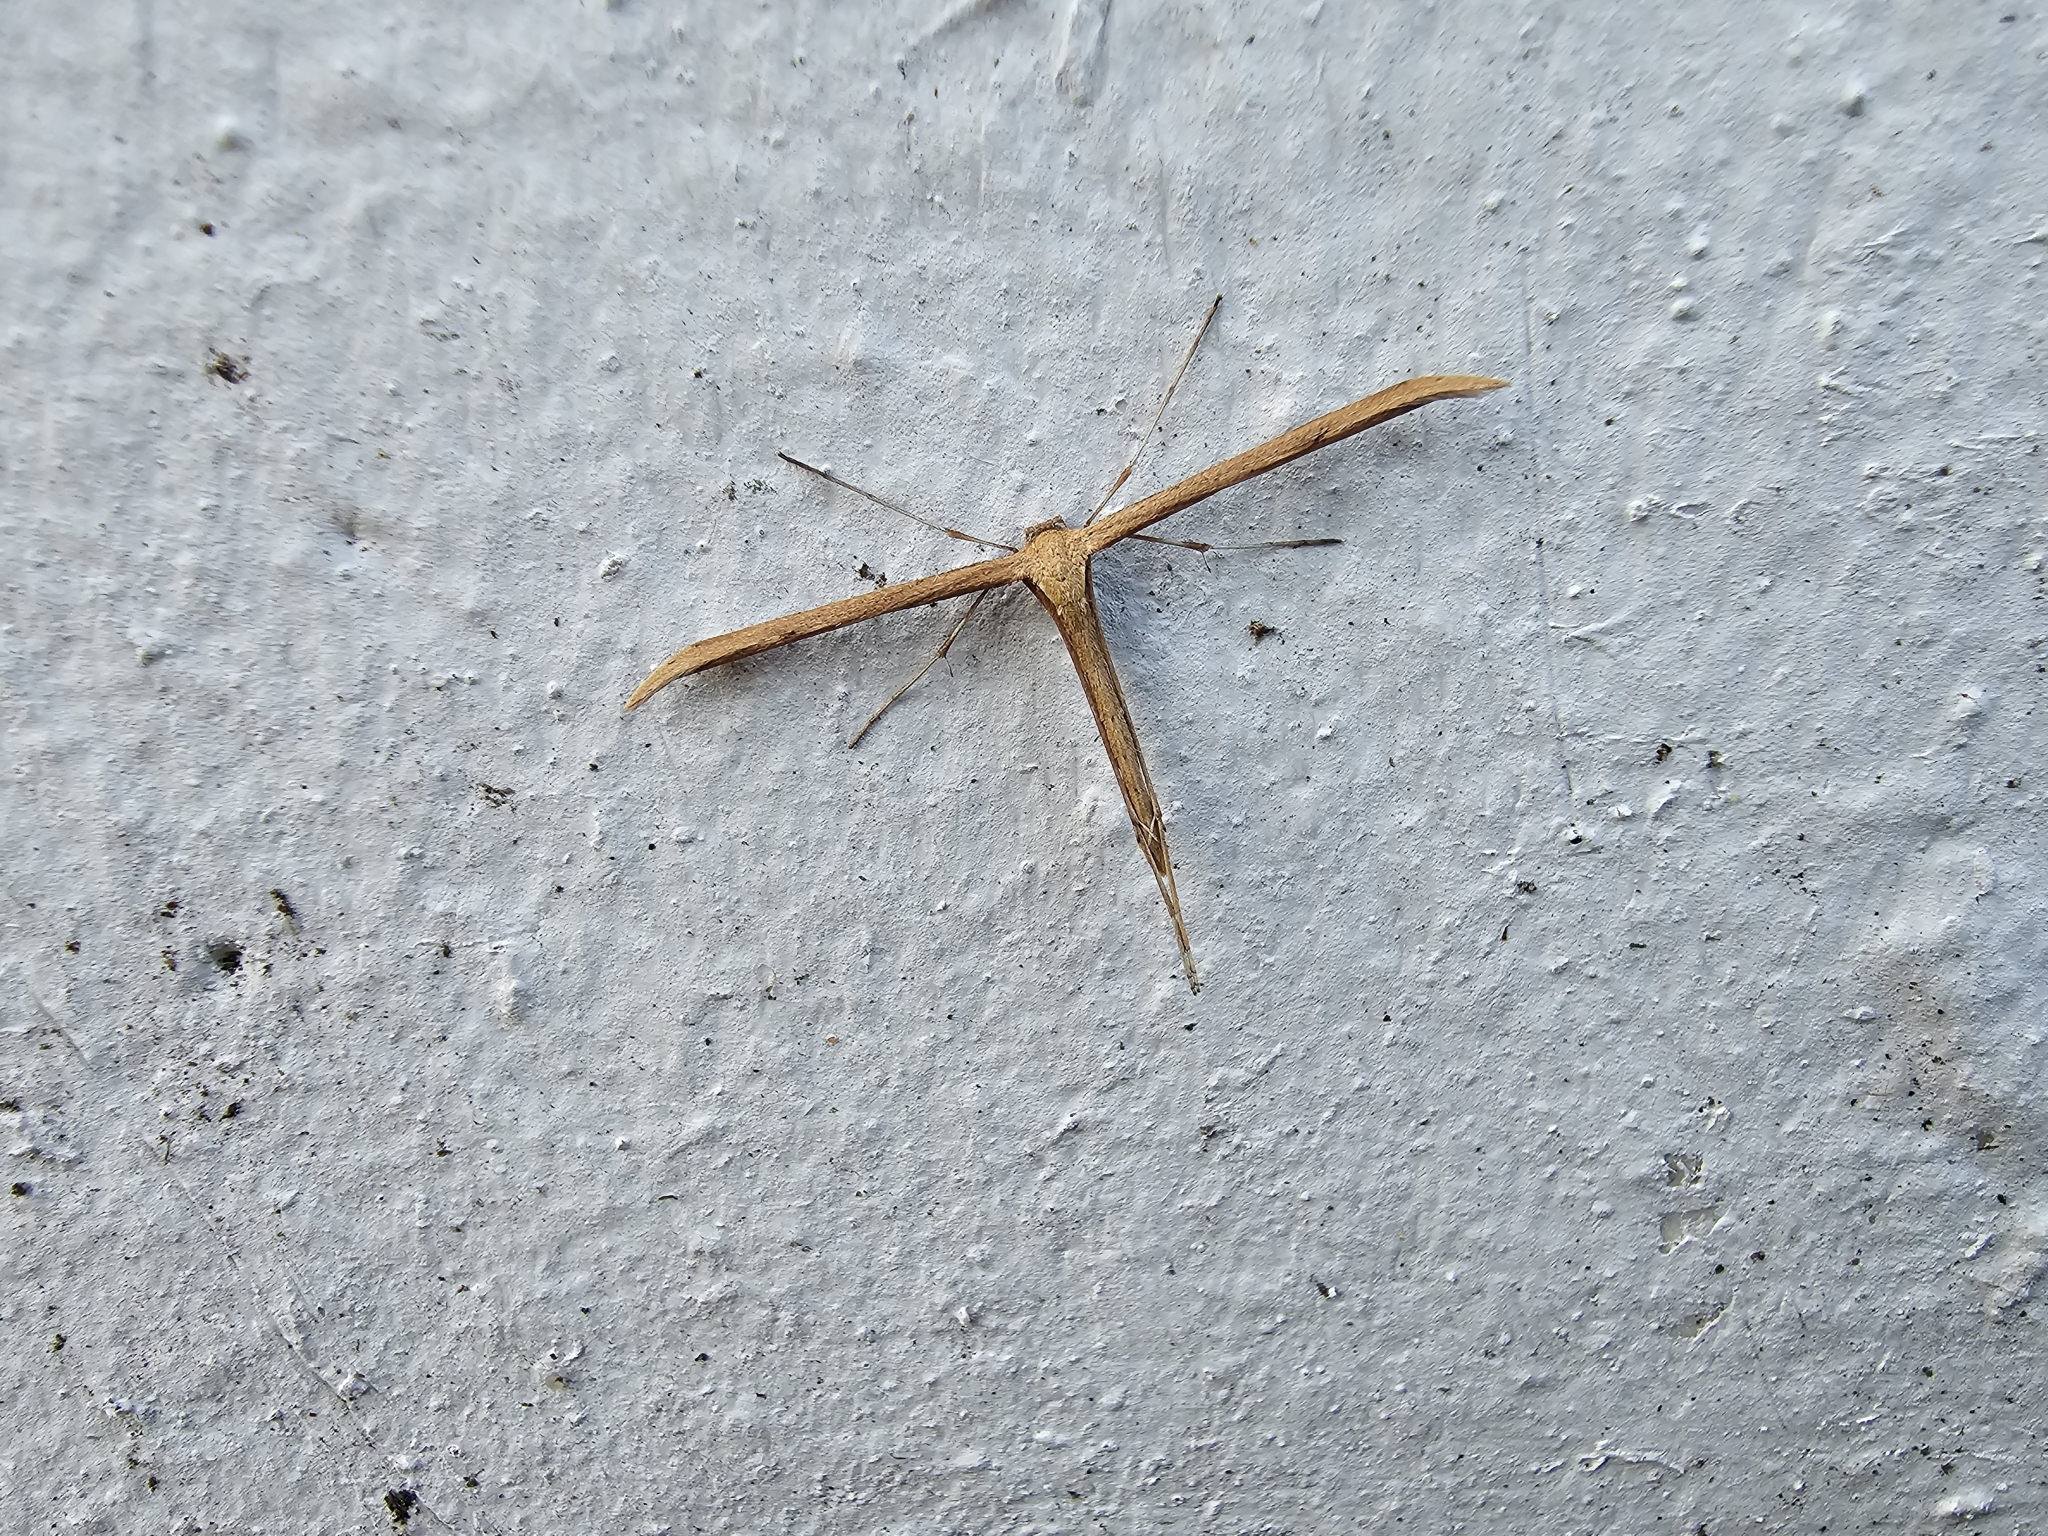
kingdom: Animalia
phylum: Arthropoda
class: Insecta
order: Lepidoptera
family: Pterophoridae
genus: Emmelina
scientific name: Emmelina monodactyla
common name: Common plume
